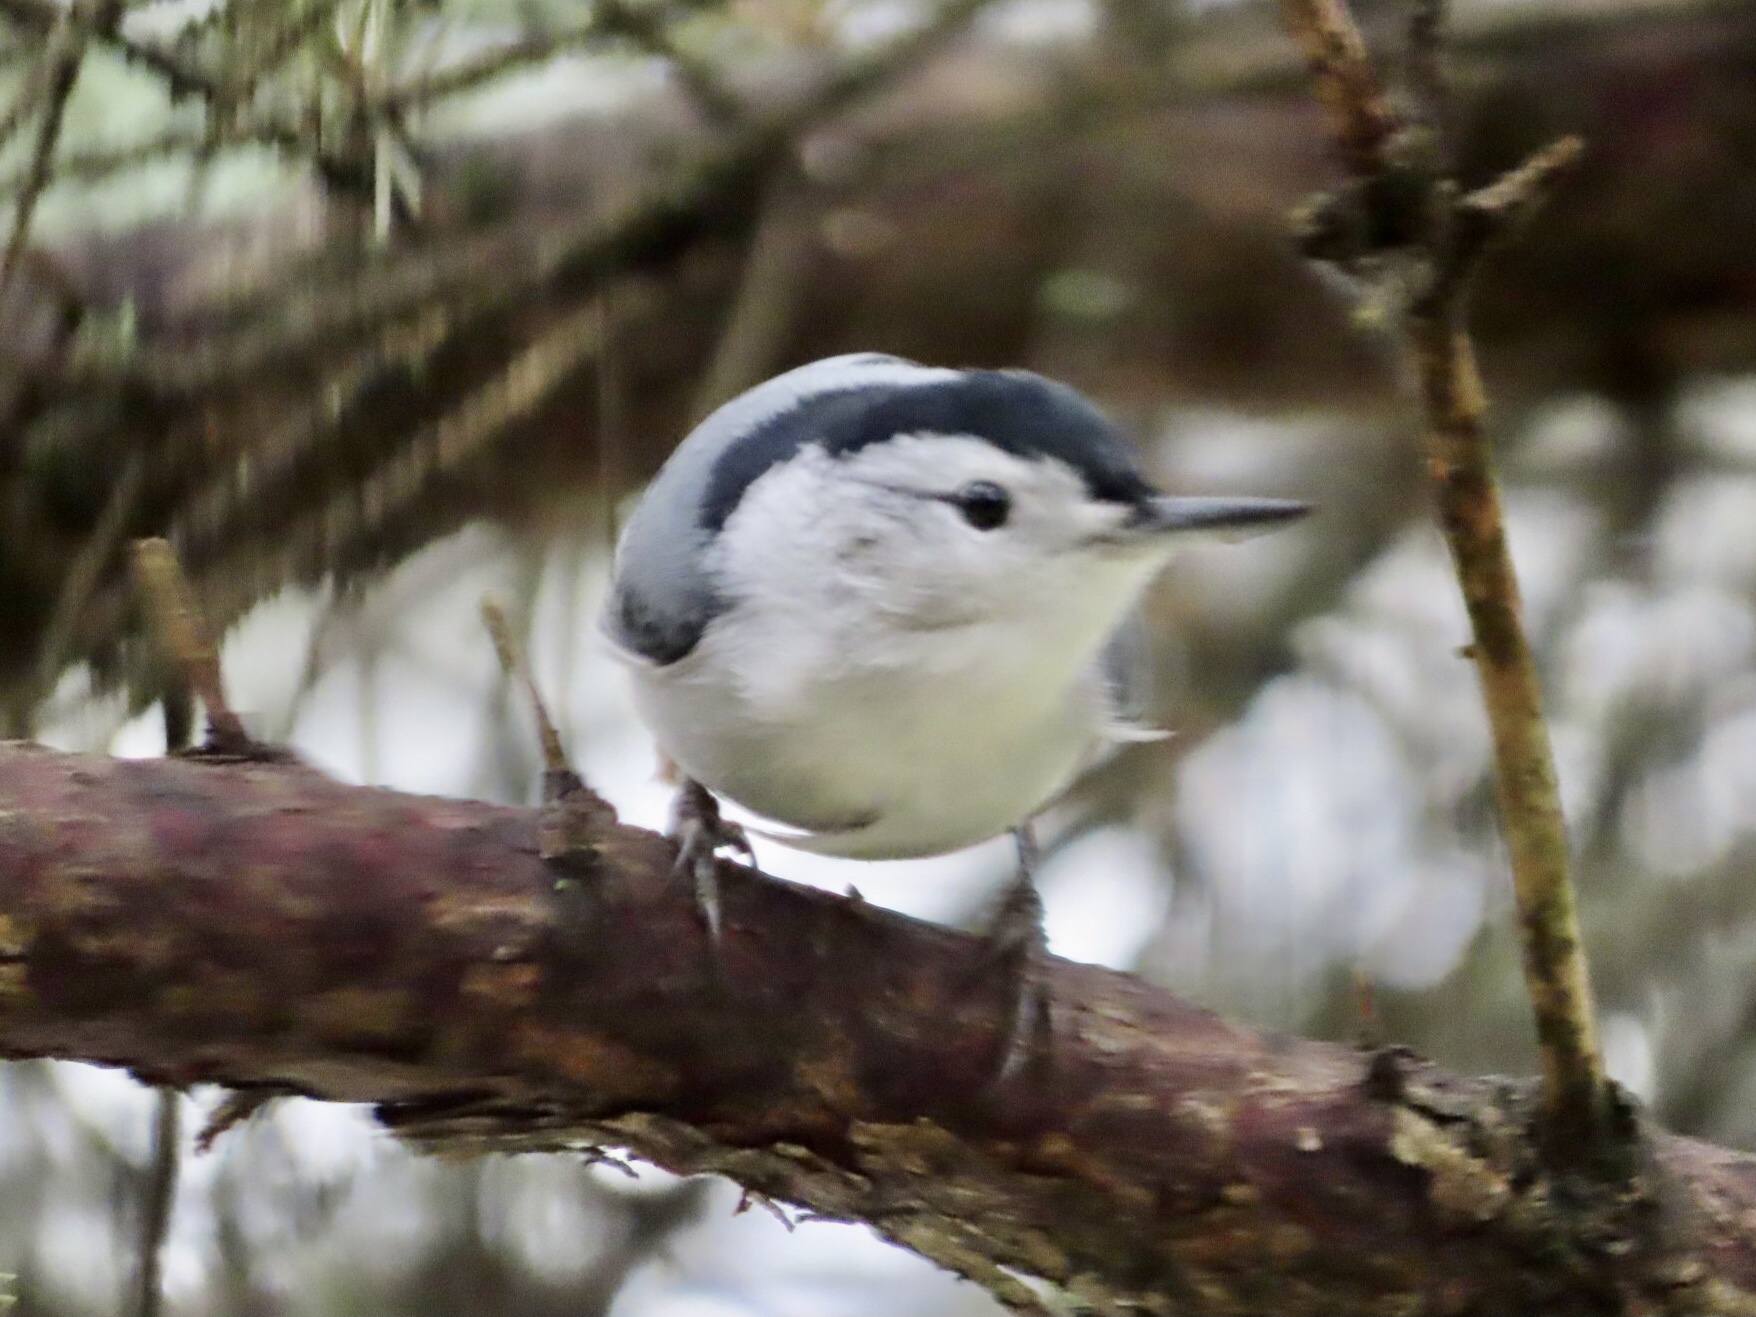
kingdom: Animalia
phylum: Chordata
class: Aves
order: Passeriformes
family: Sittidae
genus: Sitta
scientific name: Sitta carolinensis
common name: White-breasted nuthatch
